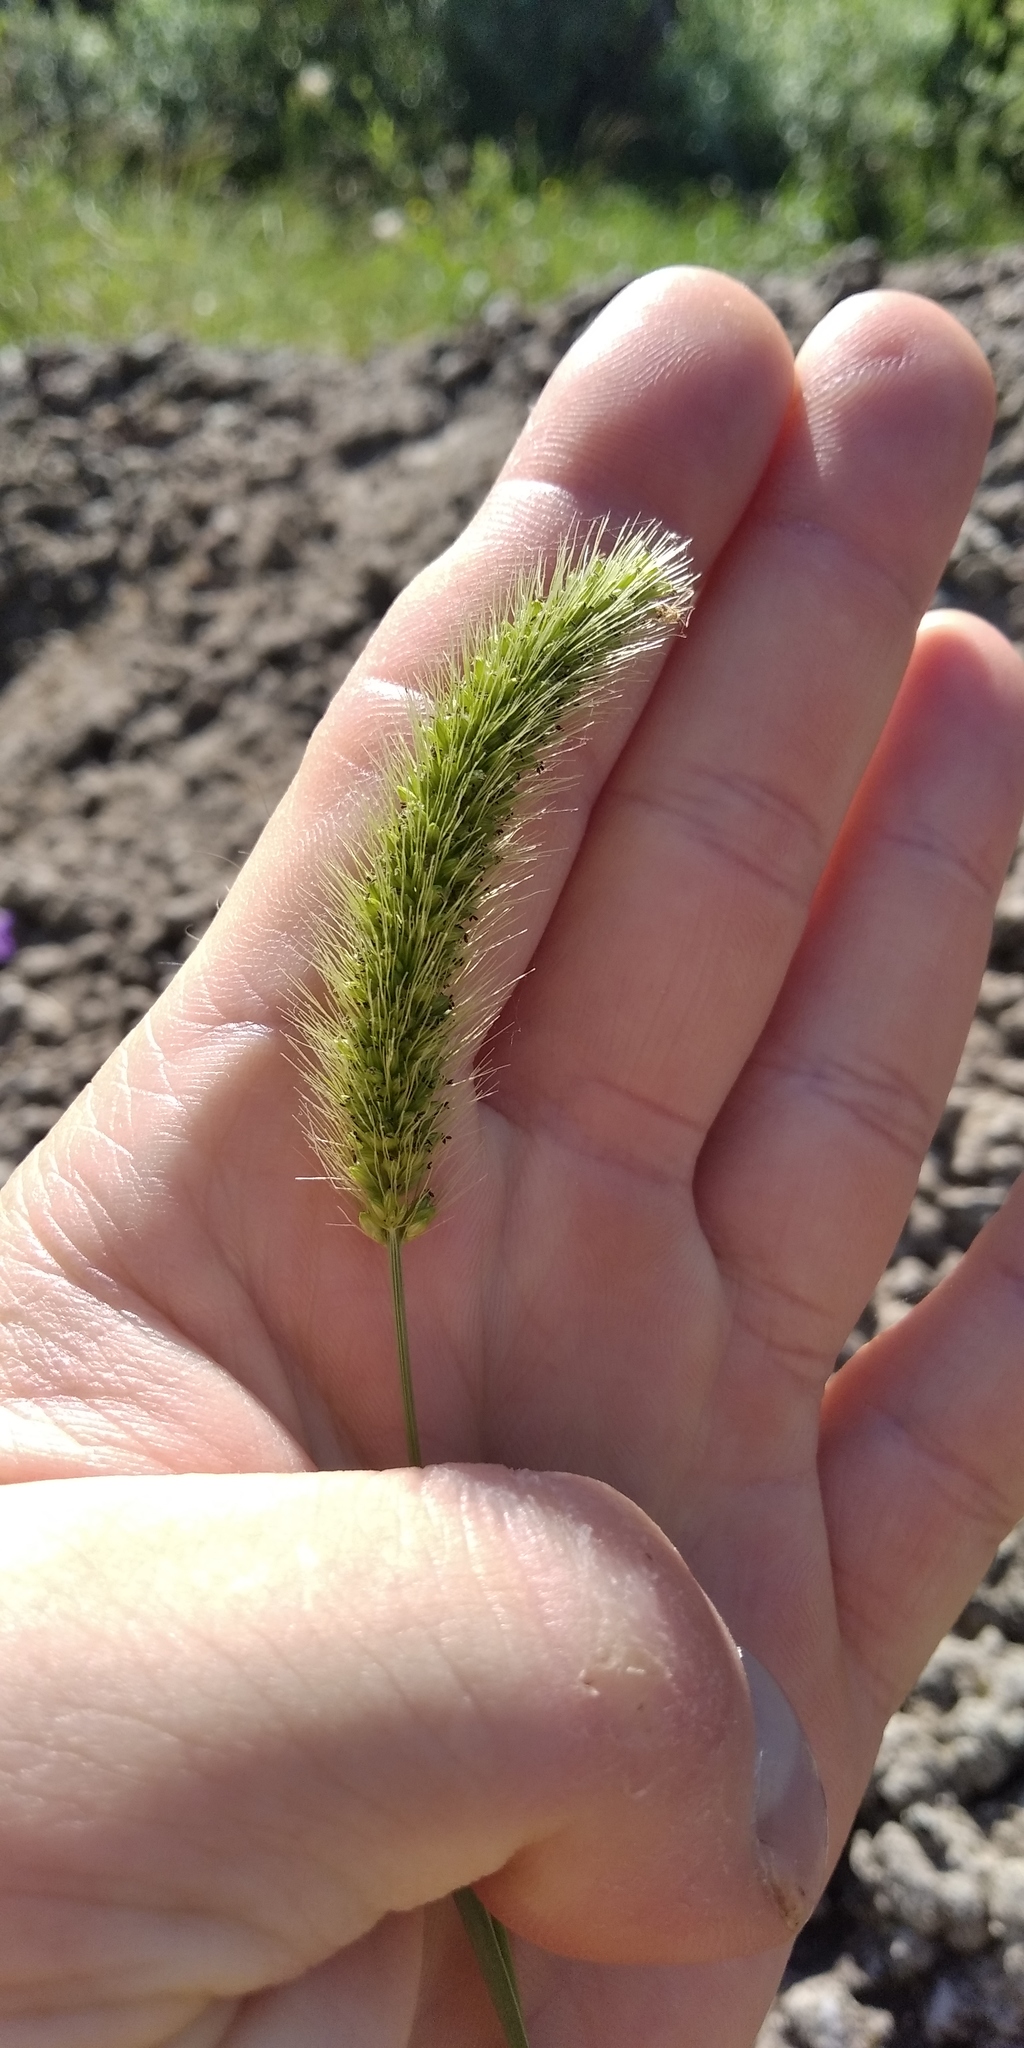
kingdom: Plantae
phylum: Tracheophyta
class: Liliopsida
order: Poales
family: Poaceae
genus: Setaria
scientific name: Setaria viridis
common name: Green bristlegrass
